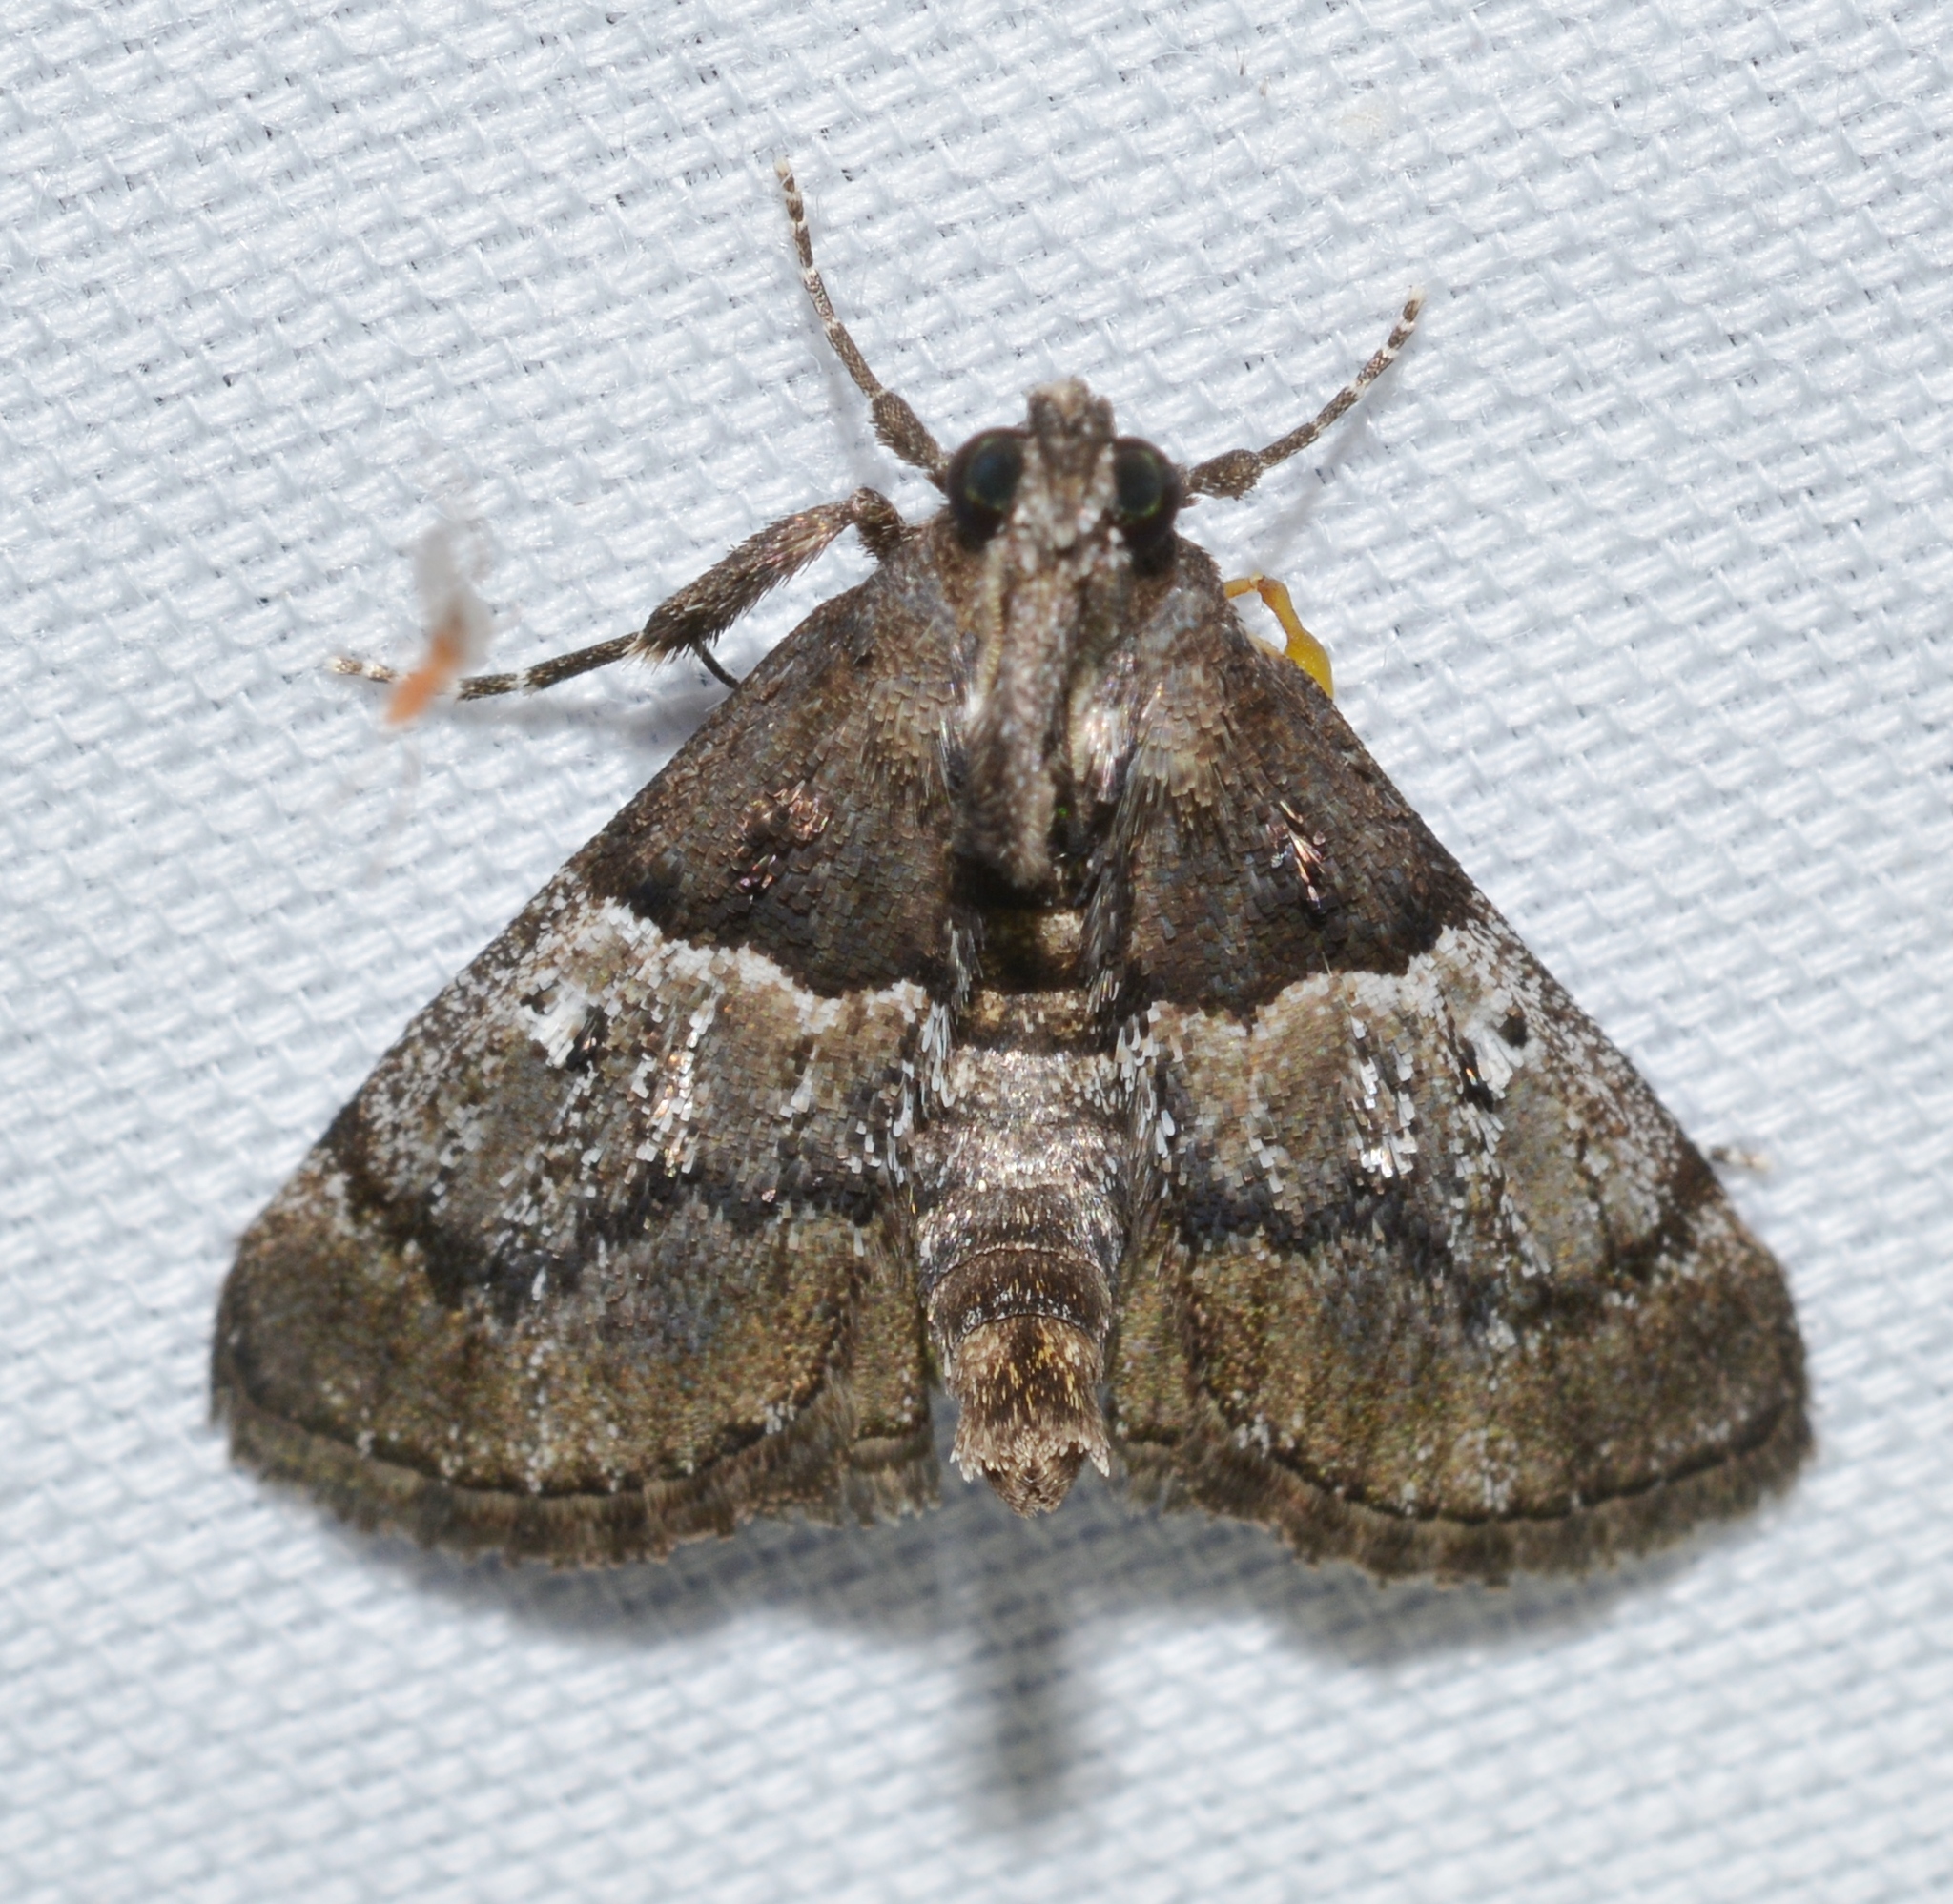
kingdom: Animalia
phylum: Arthropoda
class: Insecta
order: Lepidoptera
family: Pyralidae
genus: Macalla
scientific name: Macalla zelleri
